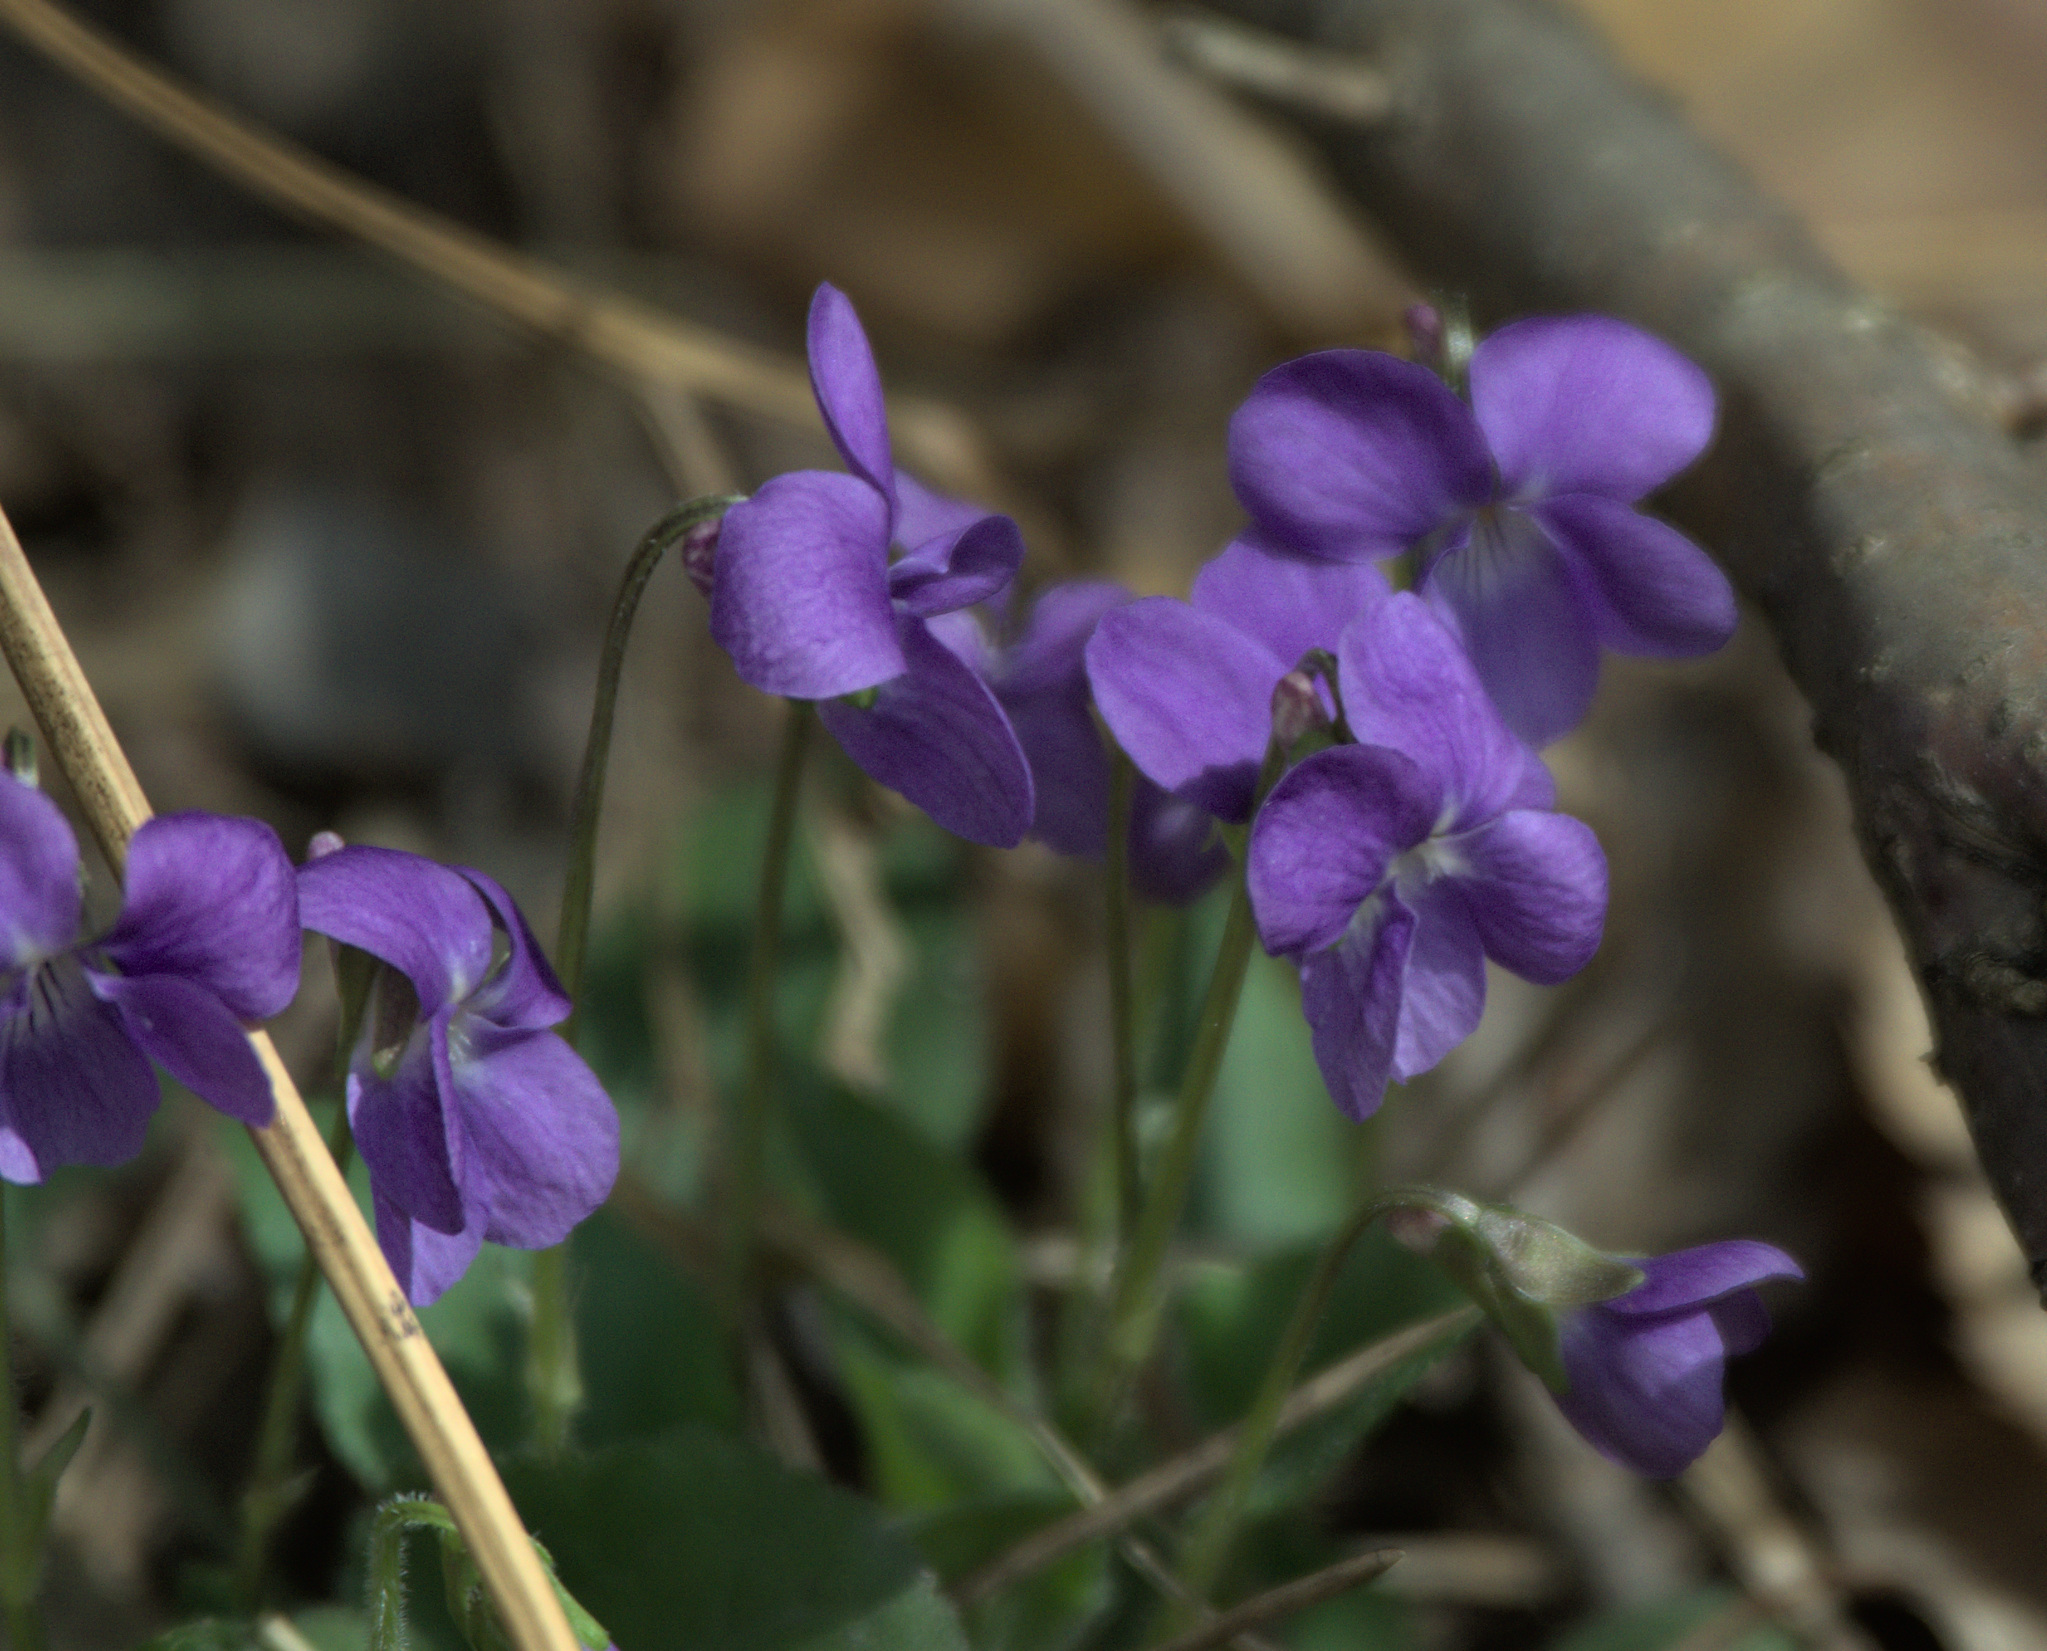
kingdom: Plantae
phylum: Tracheophyta
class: Magnoliopsida
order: Malpighiales
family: Violaceae
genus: Viola
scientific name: Viola hirta
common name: Hairy violet
